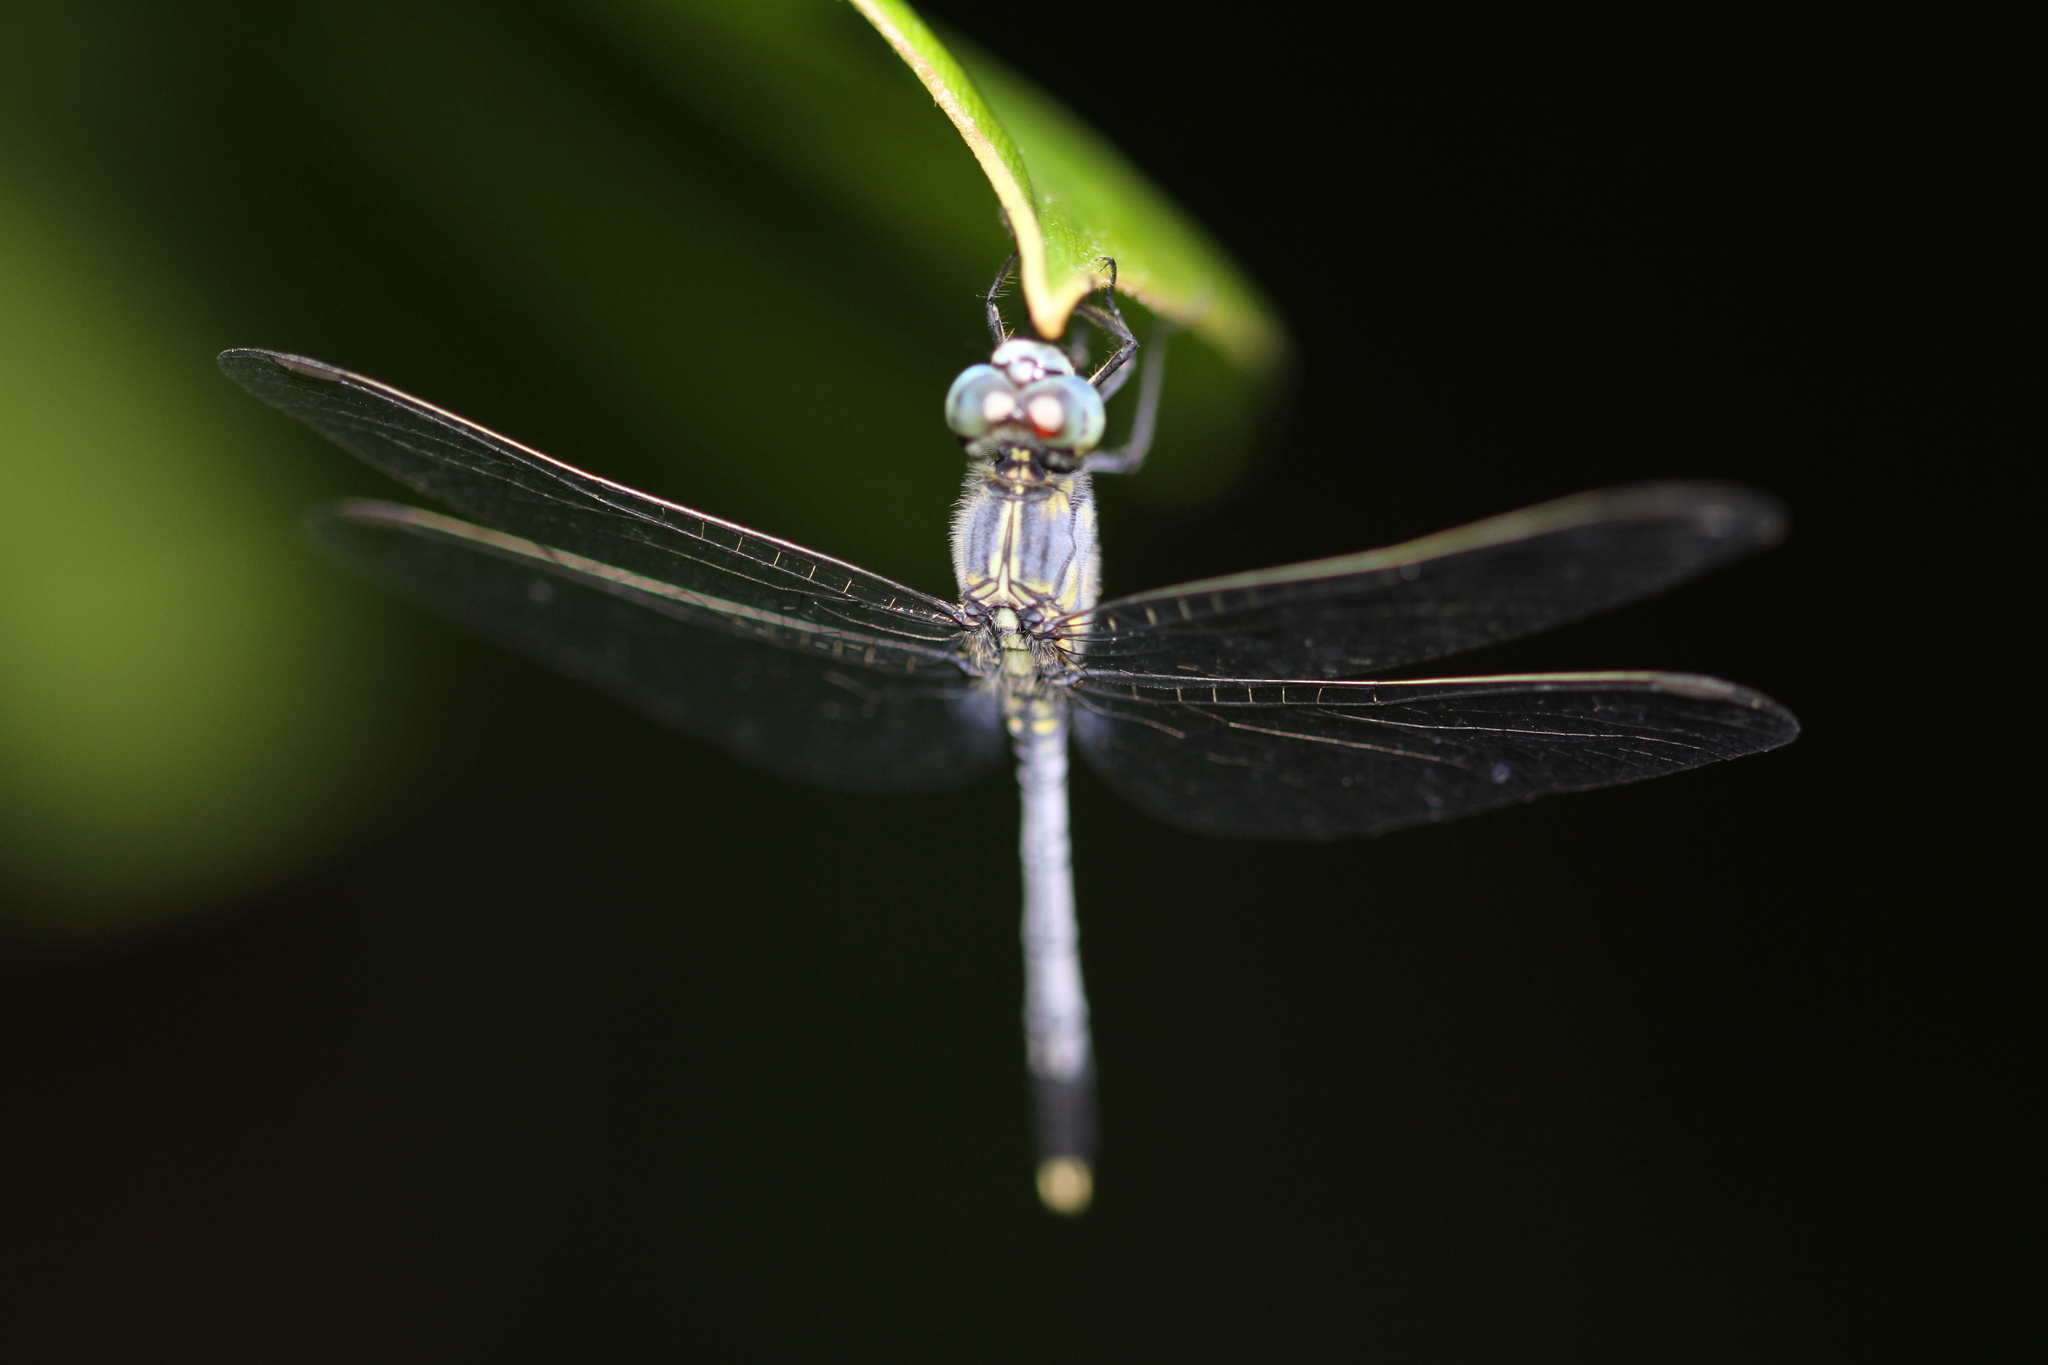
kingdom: Animalia
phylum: Arthropoda
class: Insecta
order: Odonata
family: Libellulidae
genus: Diplacodes
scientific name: Diplacodes trivialis
